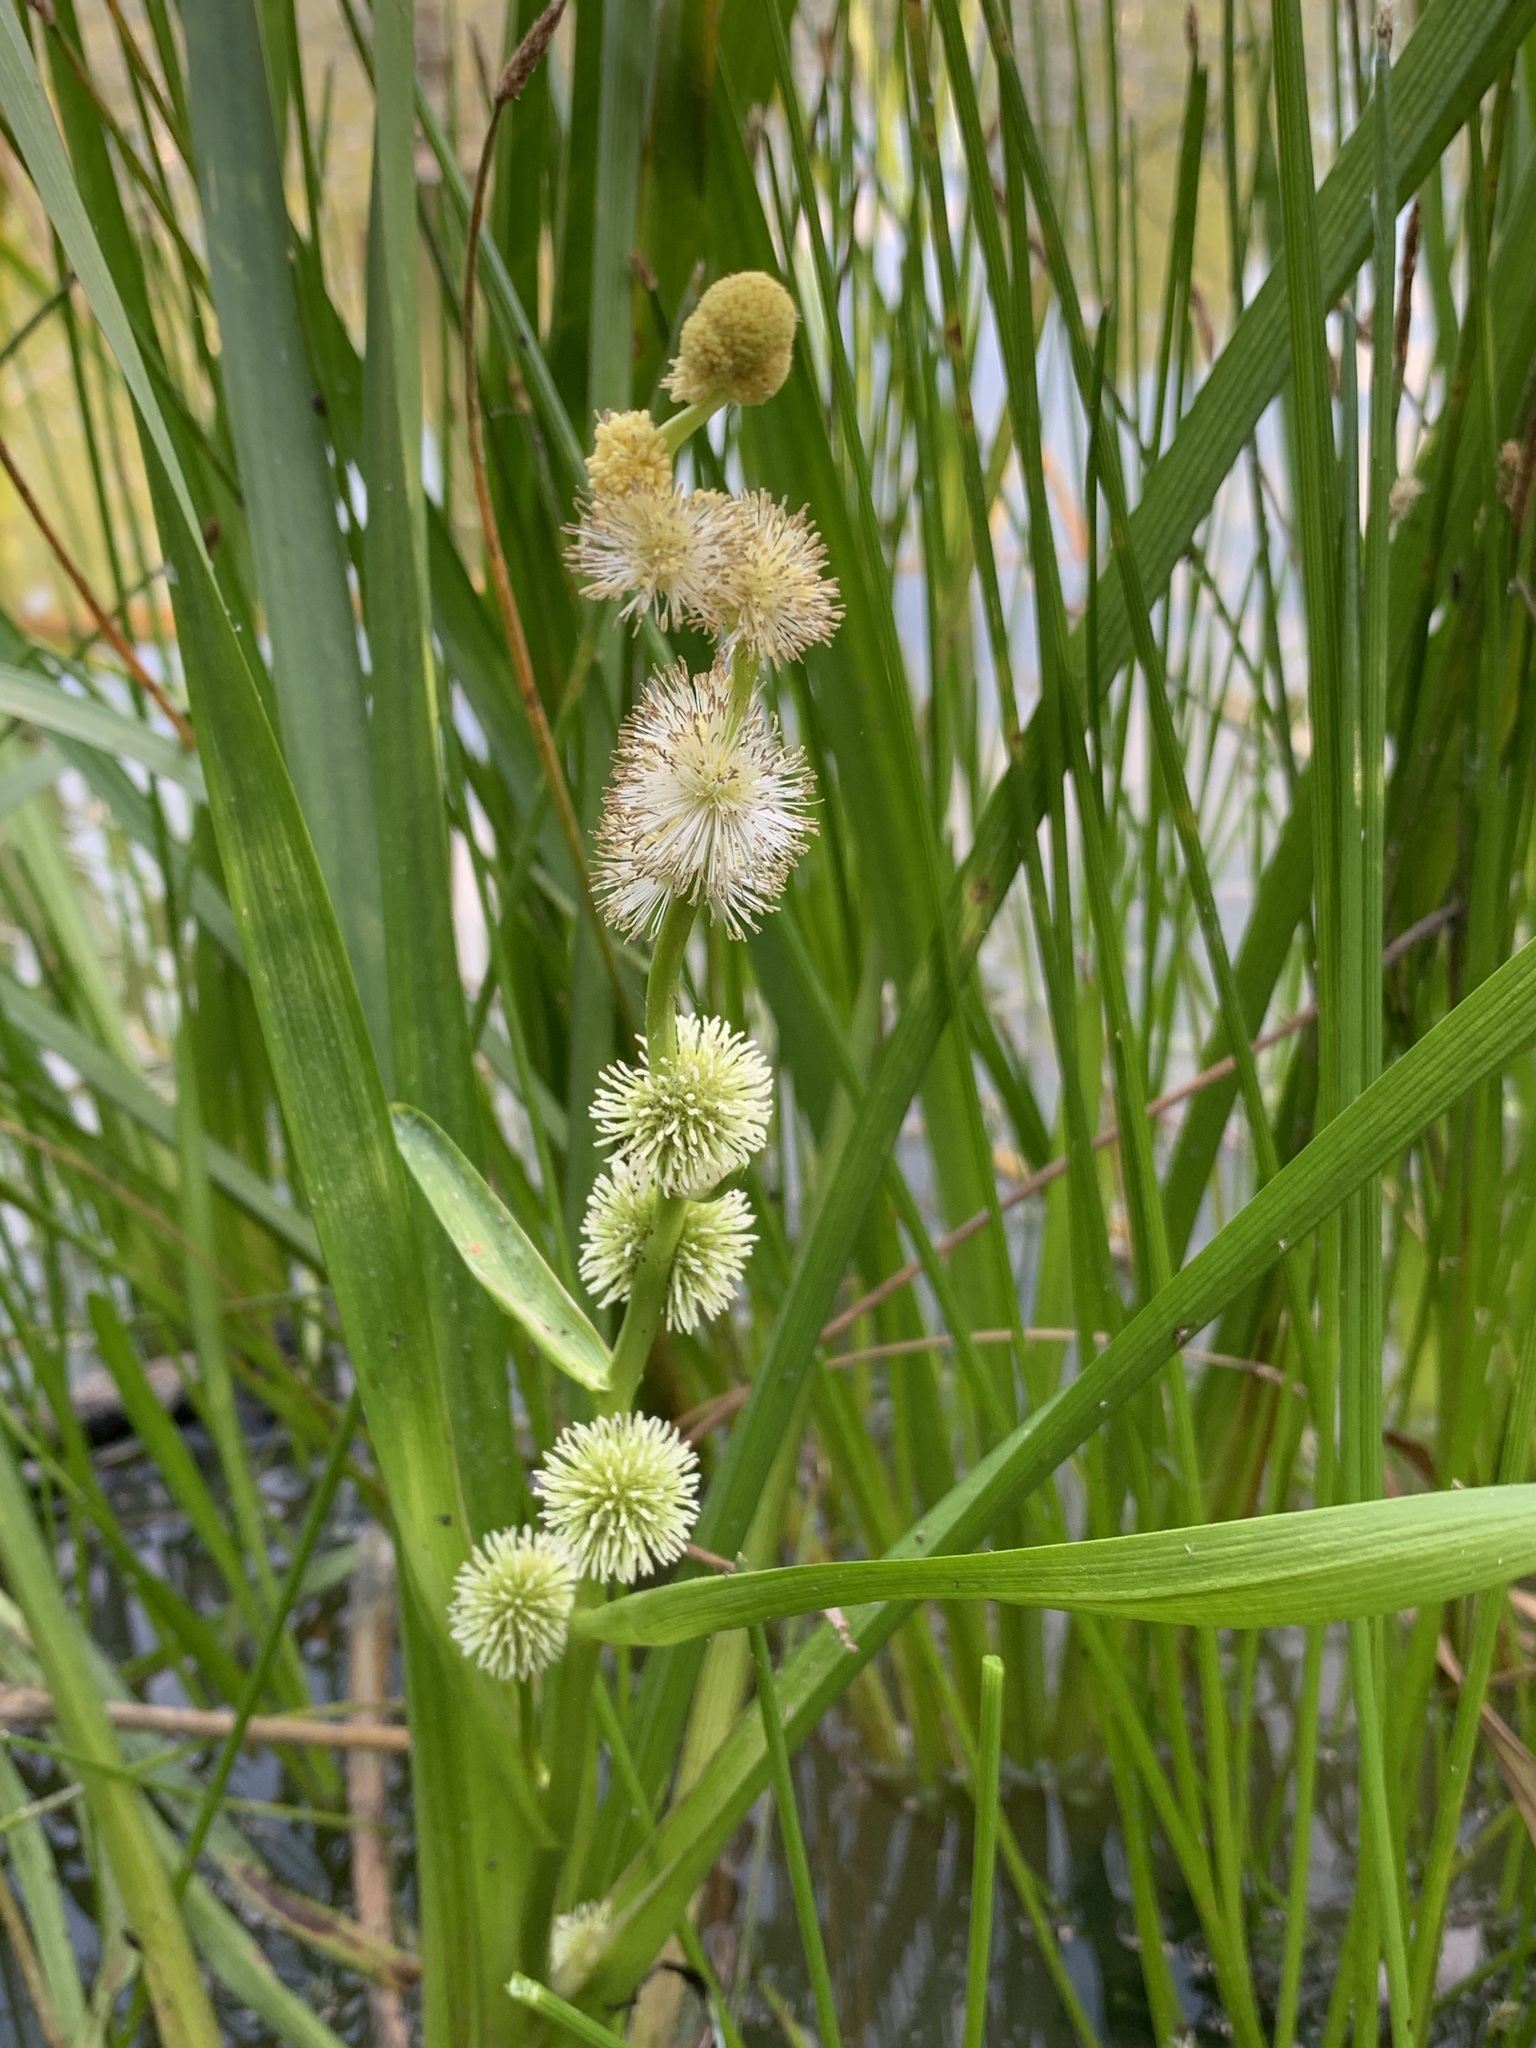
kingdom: Plantae
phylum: Tracheophyta
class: Liliopsida
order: Poales
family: Typhaceae
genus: Sparganium
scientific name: Sparganium emersum
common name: Unbranched bur-reed
